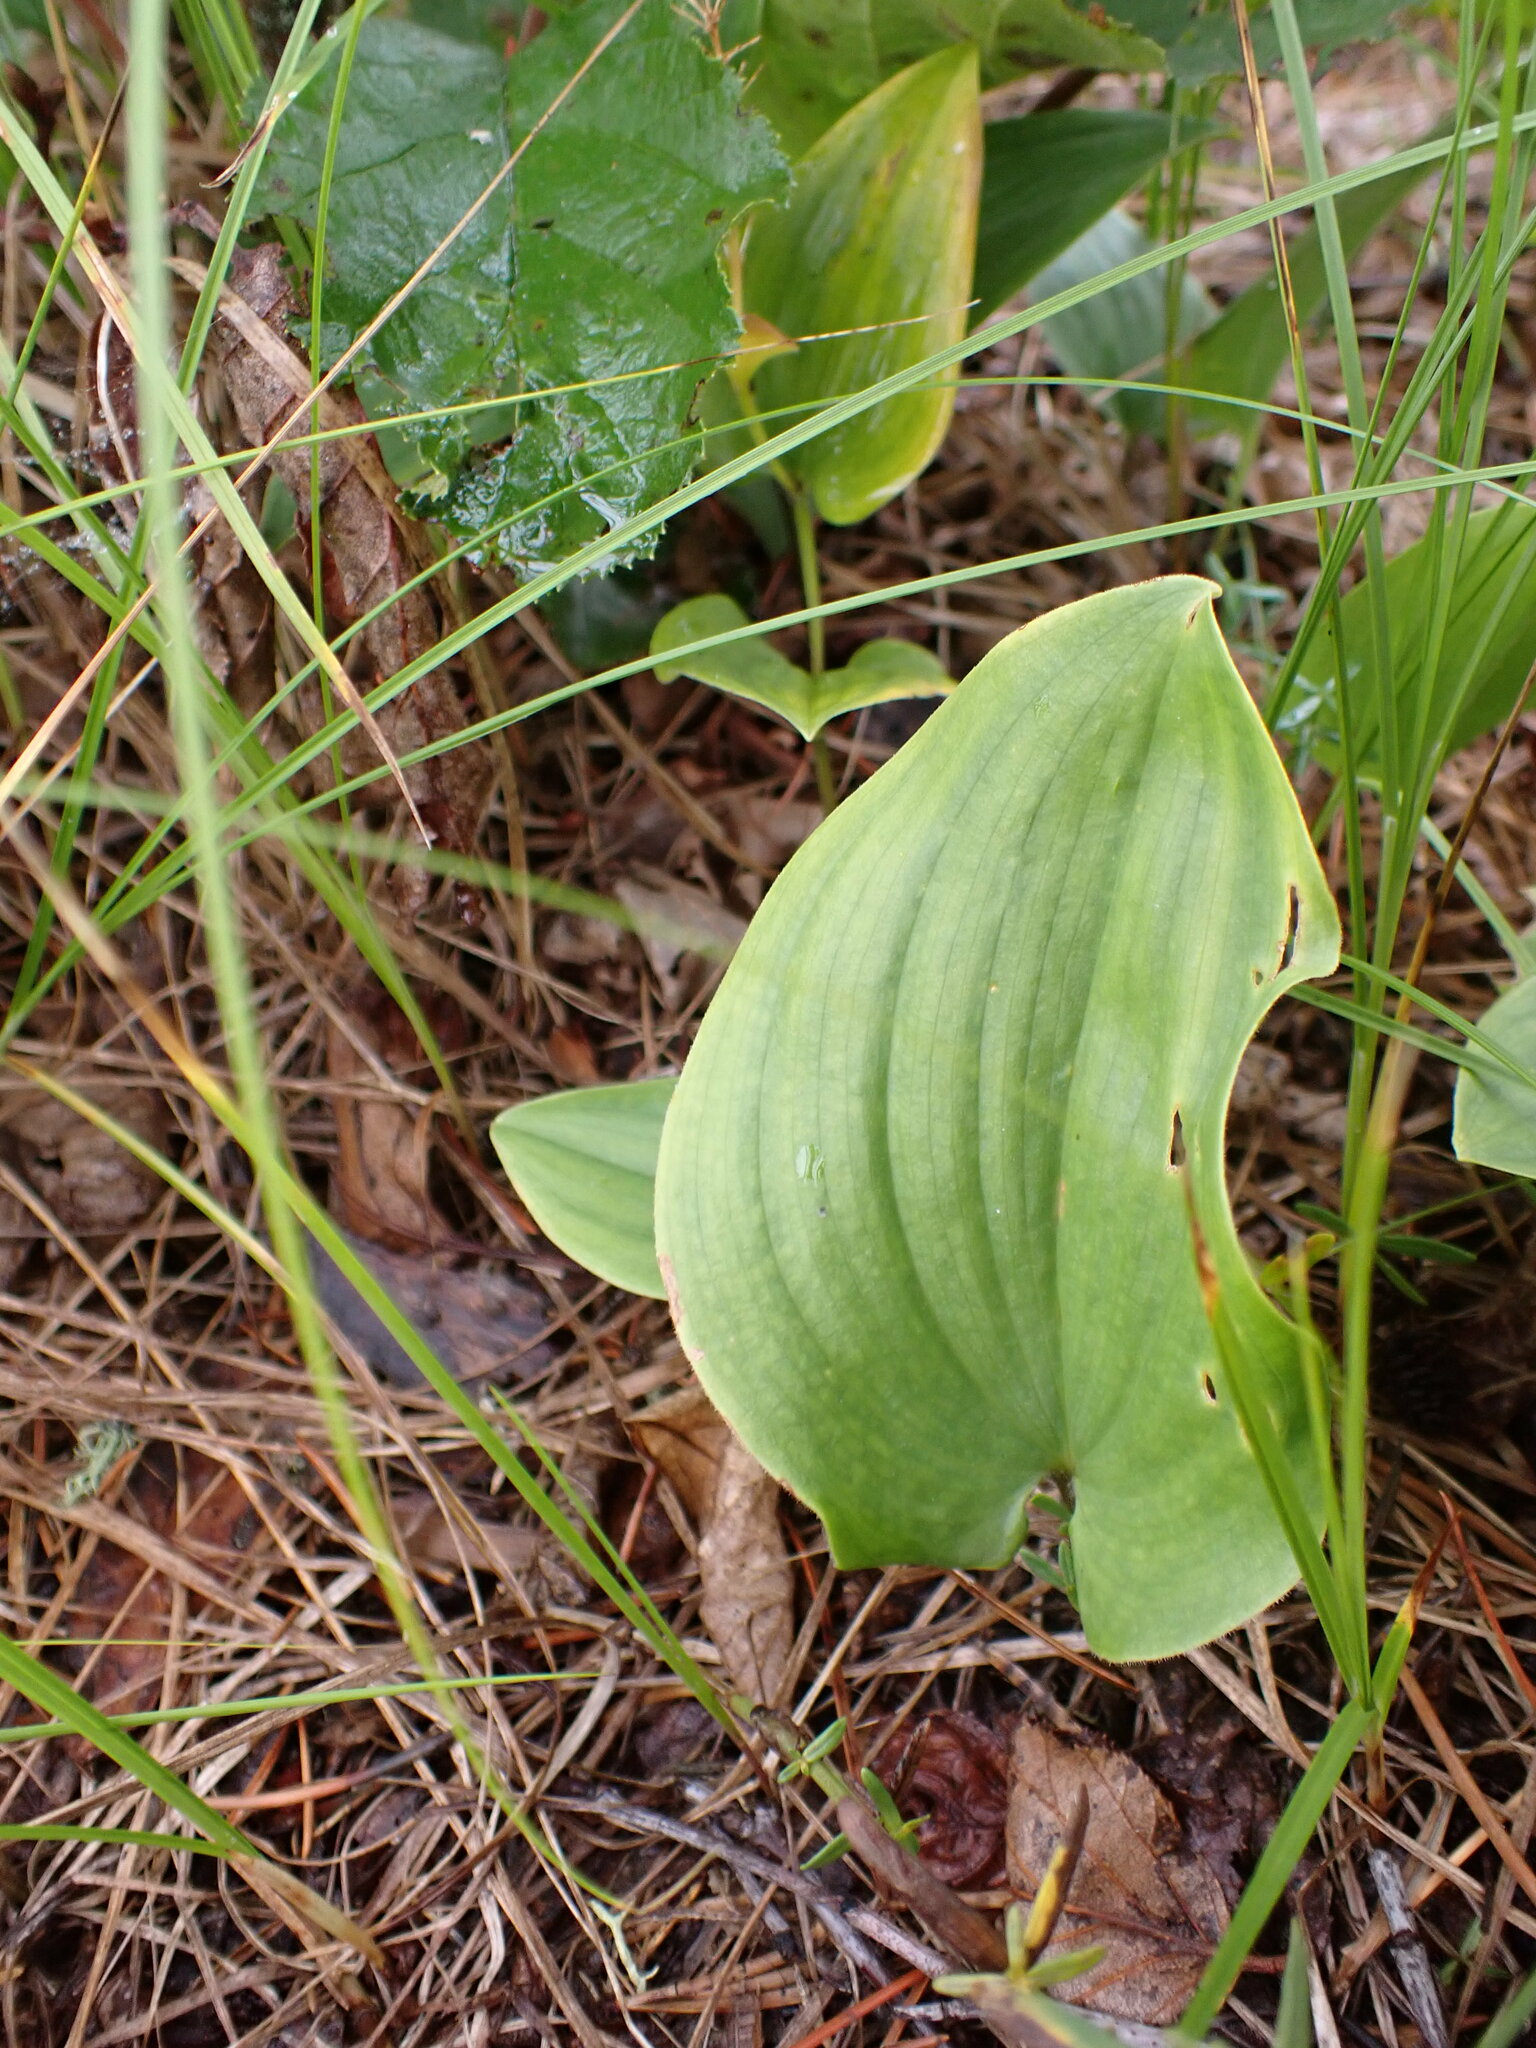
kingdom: Plantae
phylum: Tracheophyta
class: Liliopsida
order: Asparagales
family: Asparagaceae
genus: Maianthemum
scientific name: Maianthemum canadense
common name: False lily-of-the-valley
